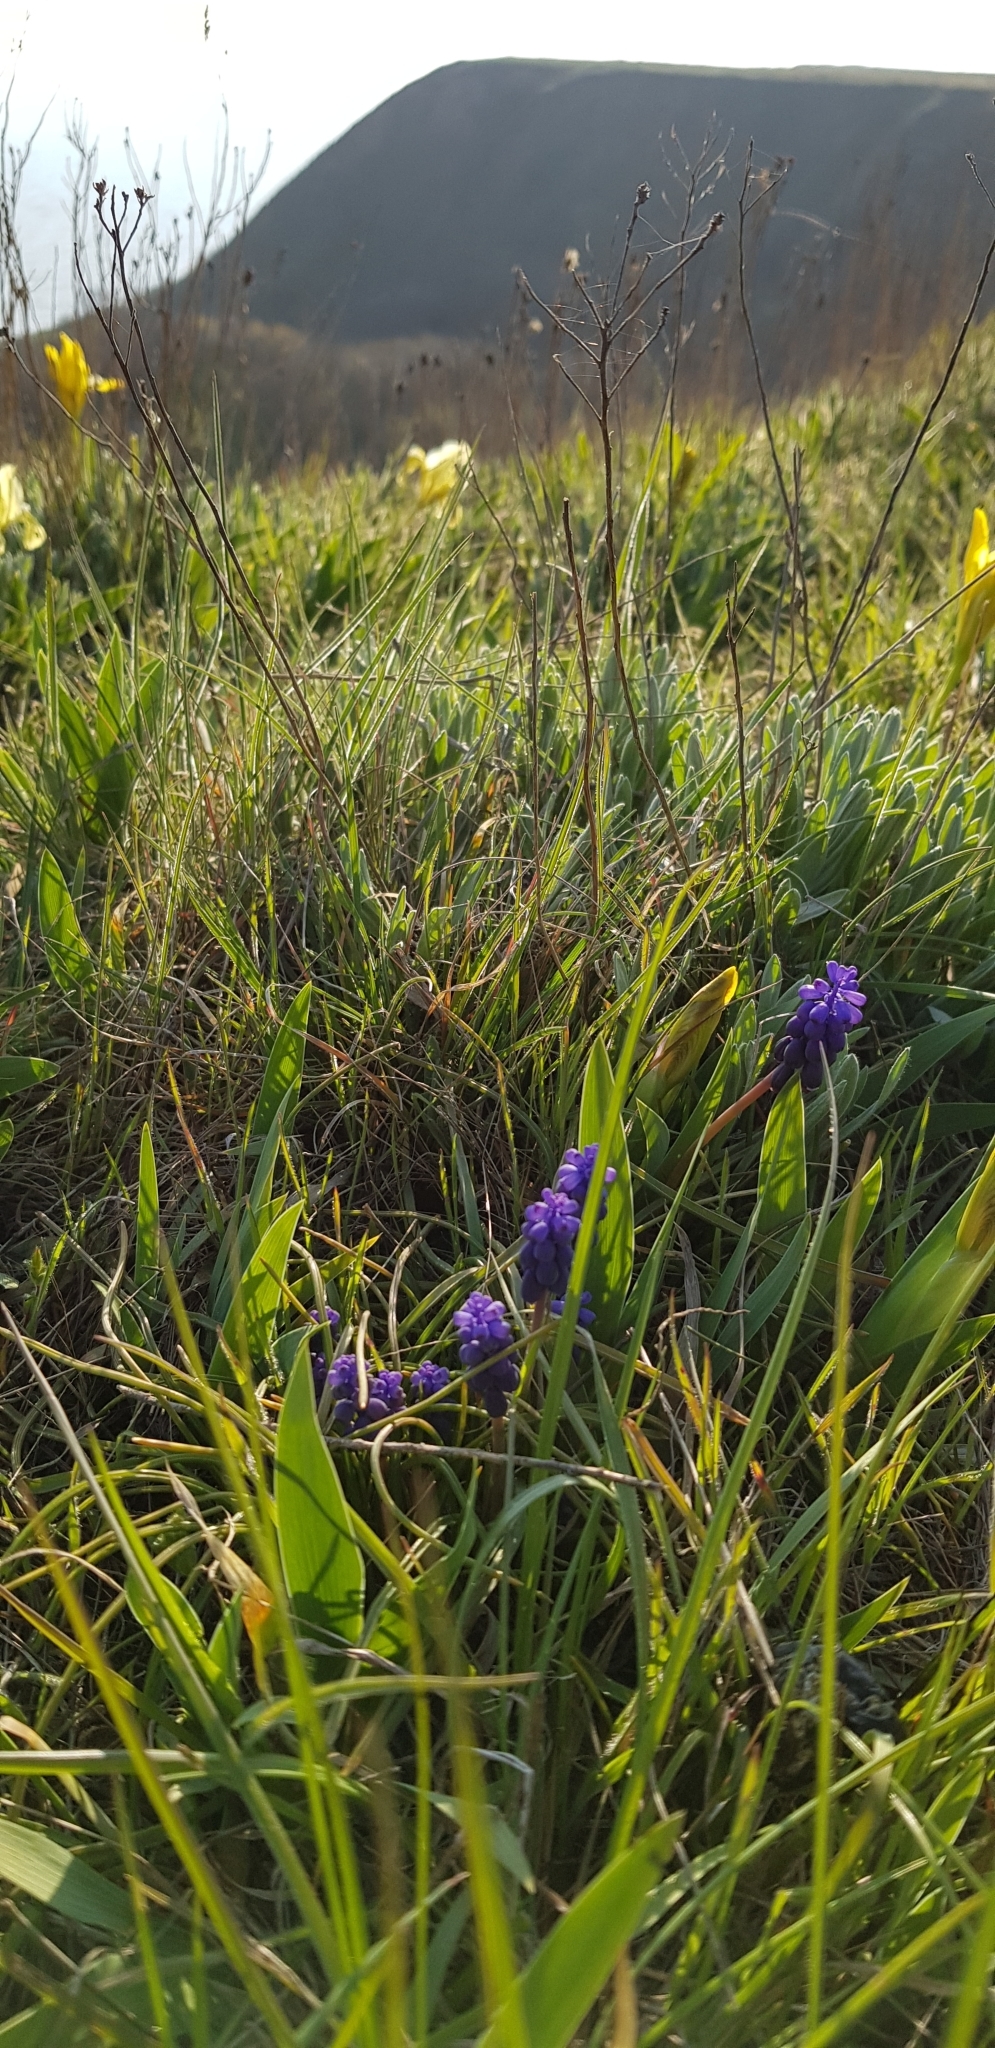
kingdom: Plantae
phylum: Tracheophyta
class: Liliopsida
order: Asparagales
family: Asparagaceae
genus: Muscari
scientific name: Muscari neglectum
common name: Grape-hyacinth
